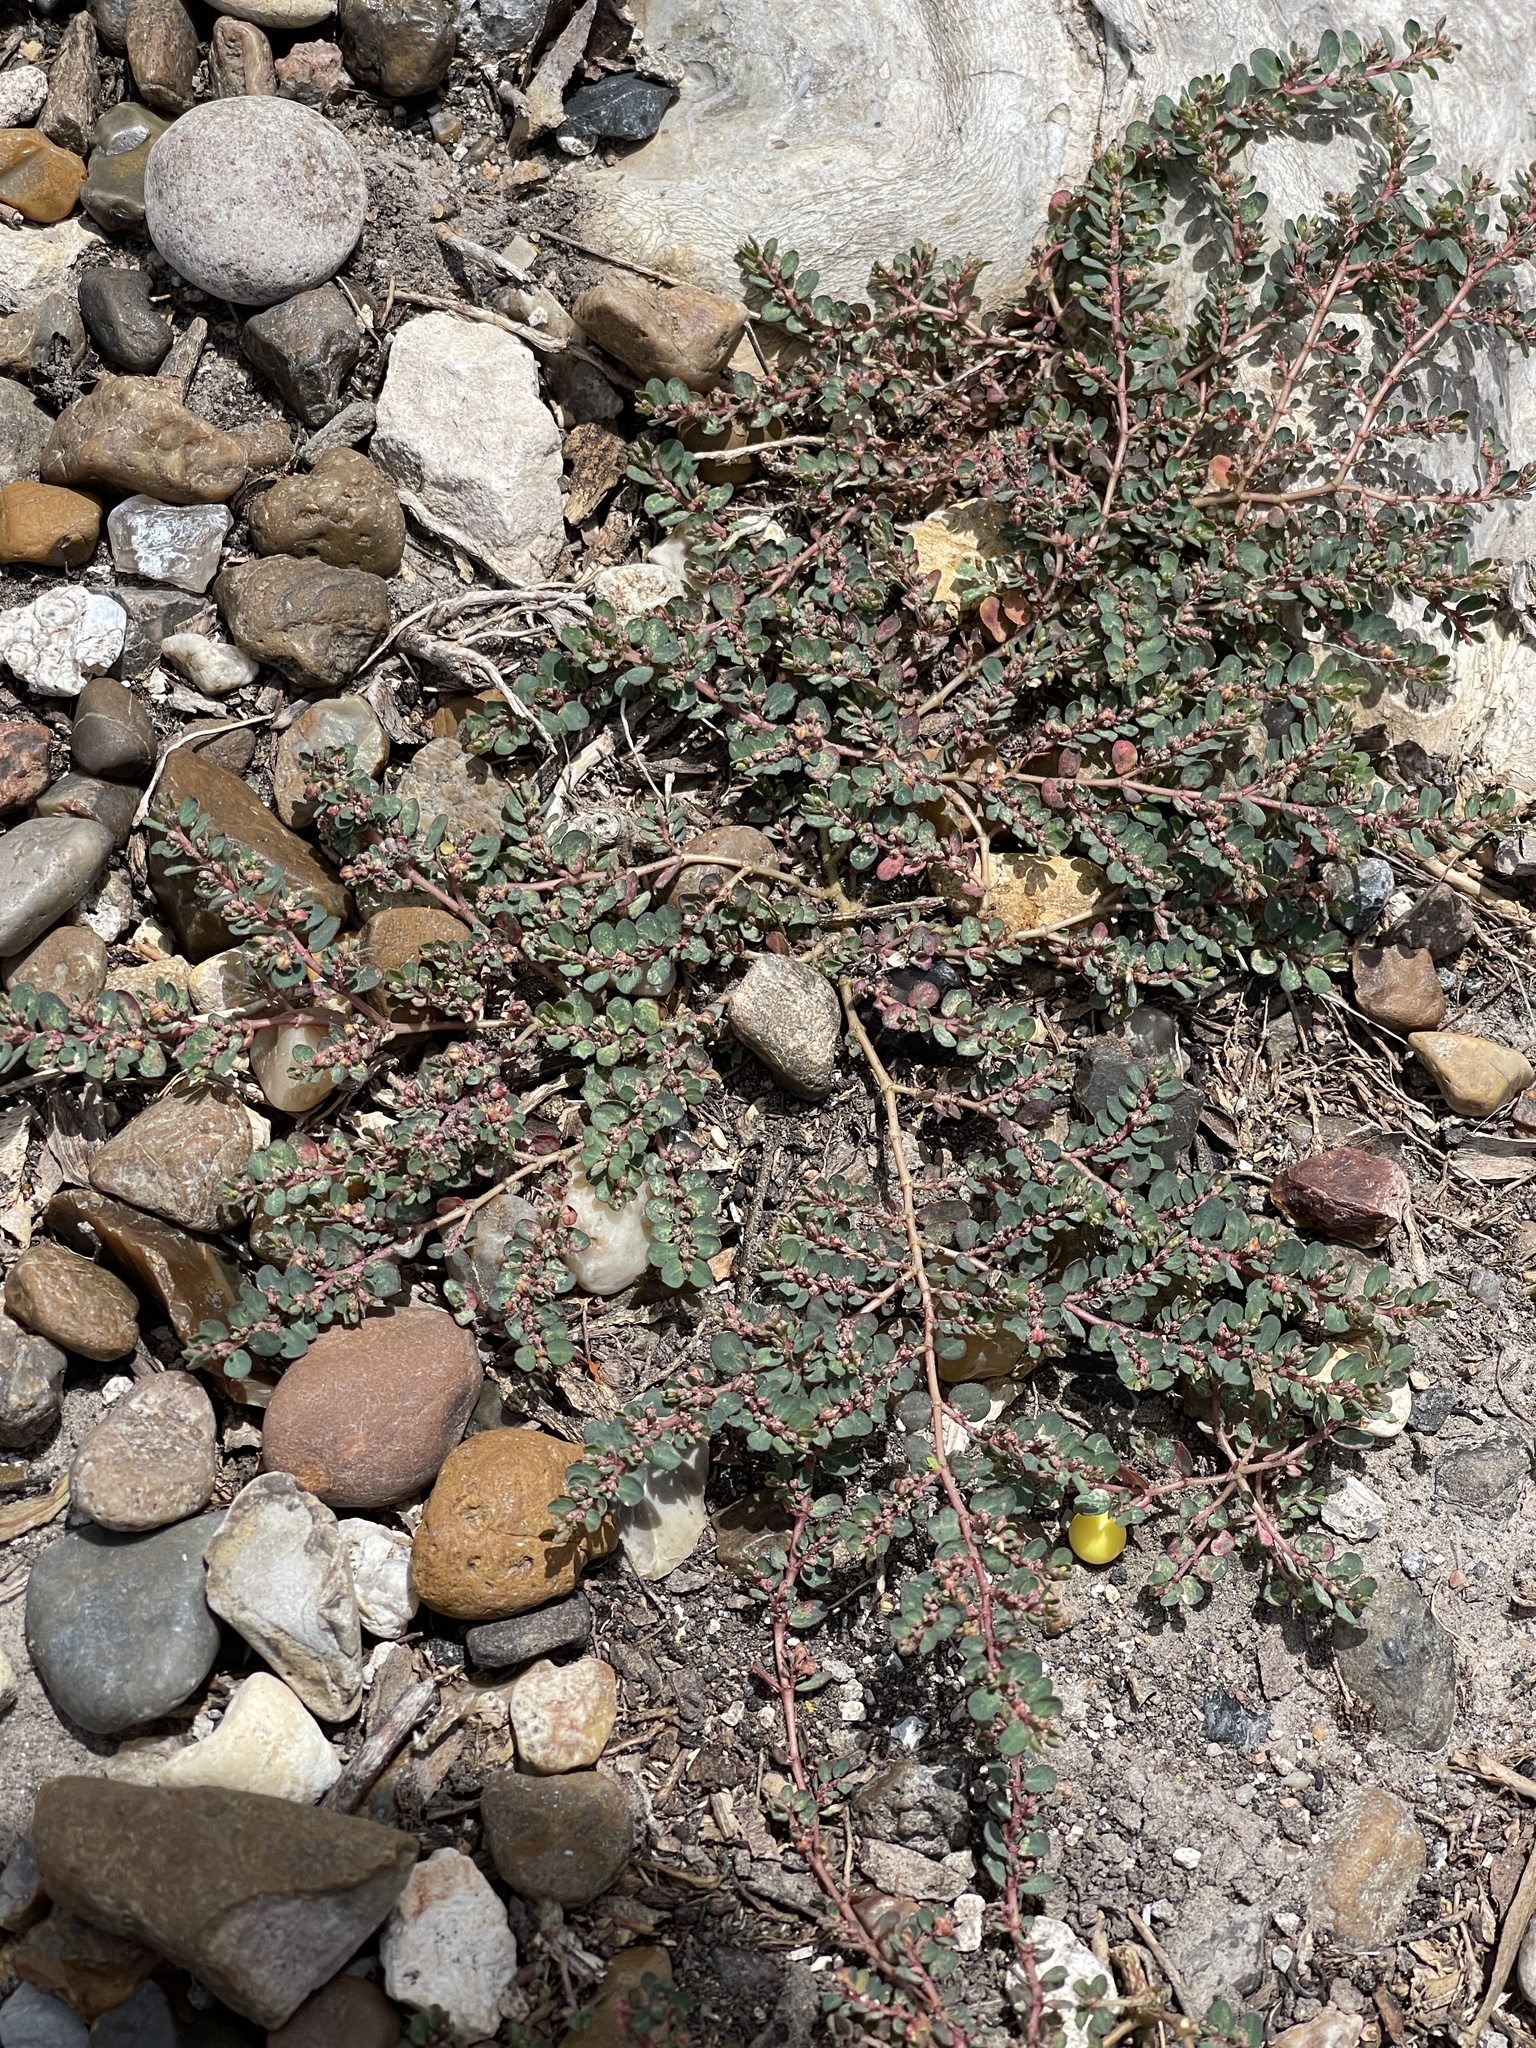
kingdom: Plantae
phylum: Tracheophyta
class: Magnoliopsida
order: Malpighiales
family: Euphorbiaceae
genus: Euphorbia
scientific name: Euphorbia prostrata
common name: Prostrate sandmat
